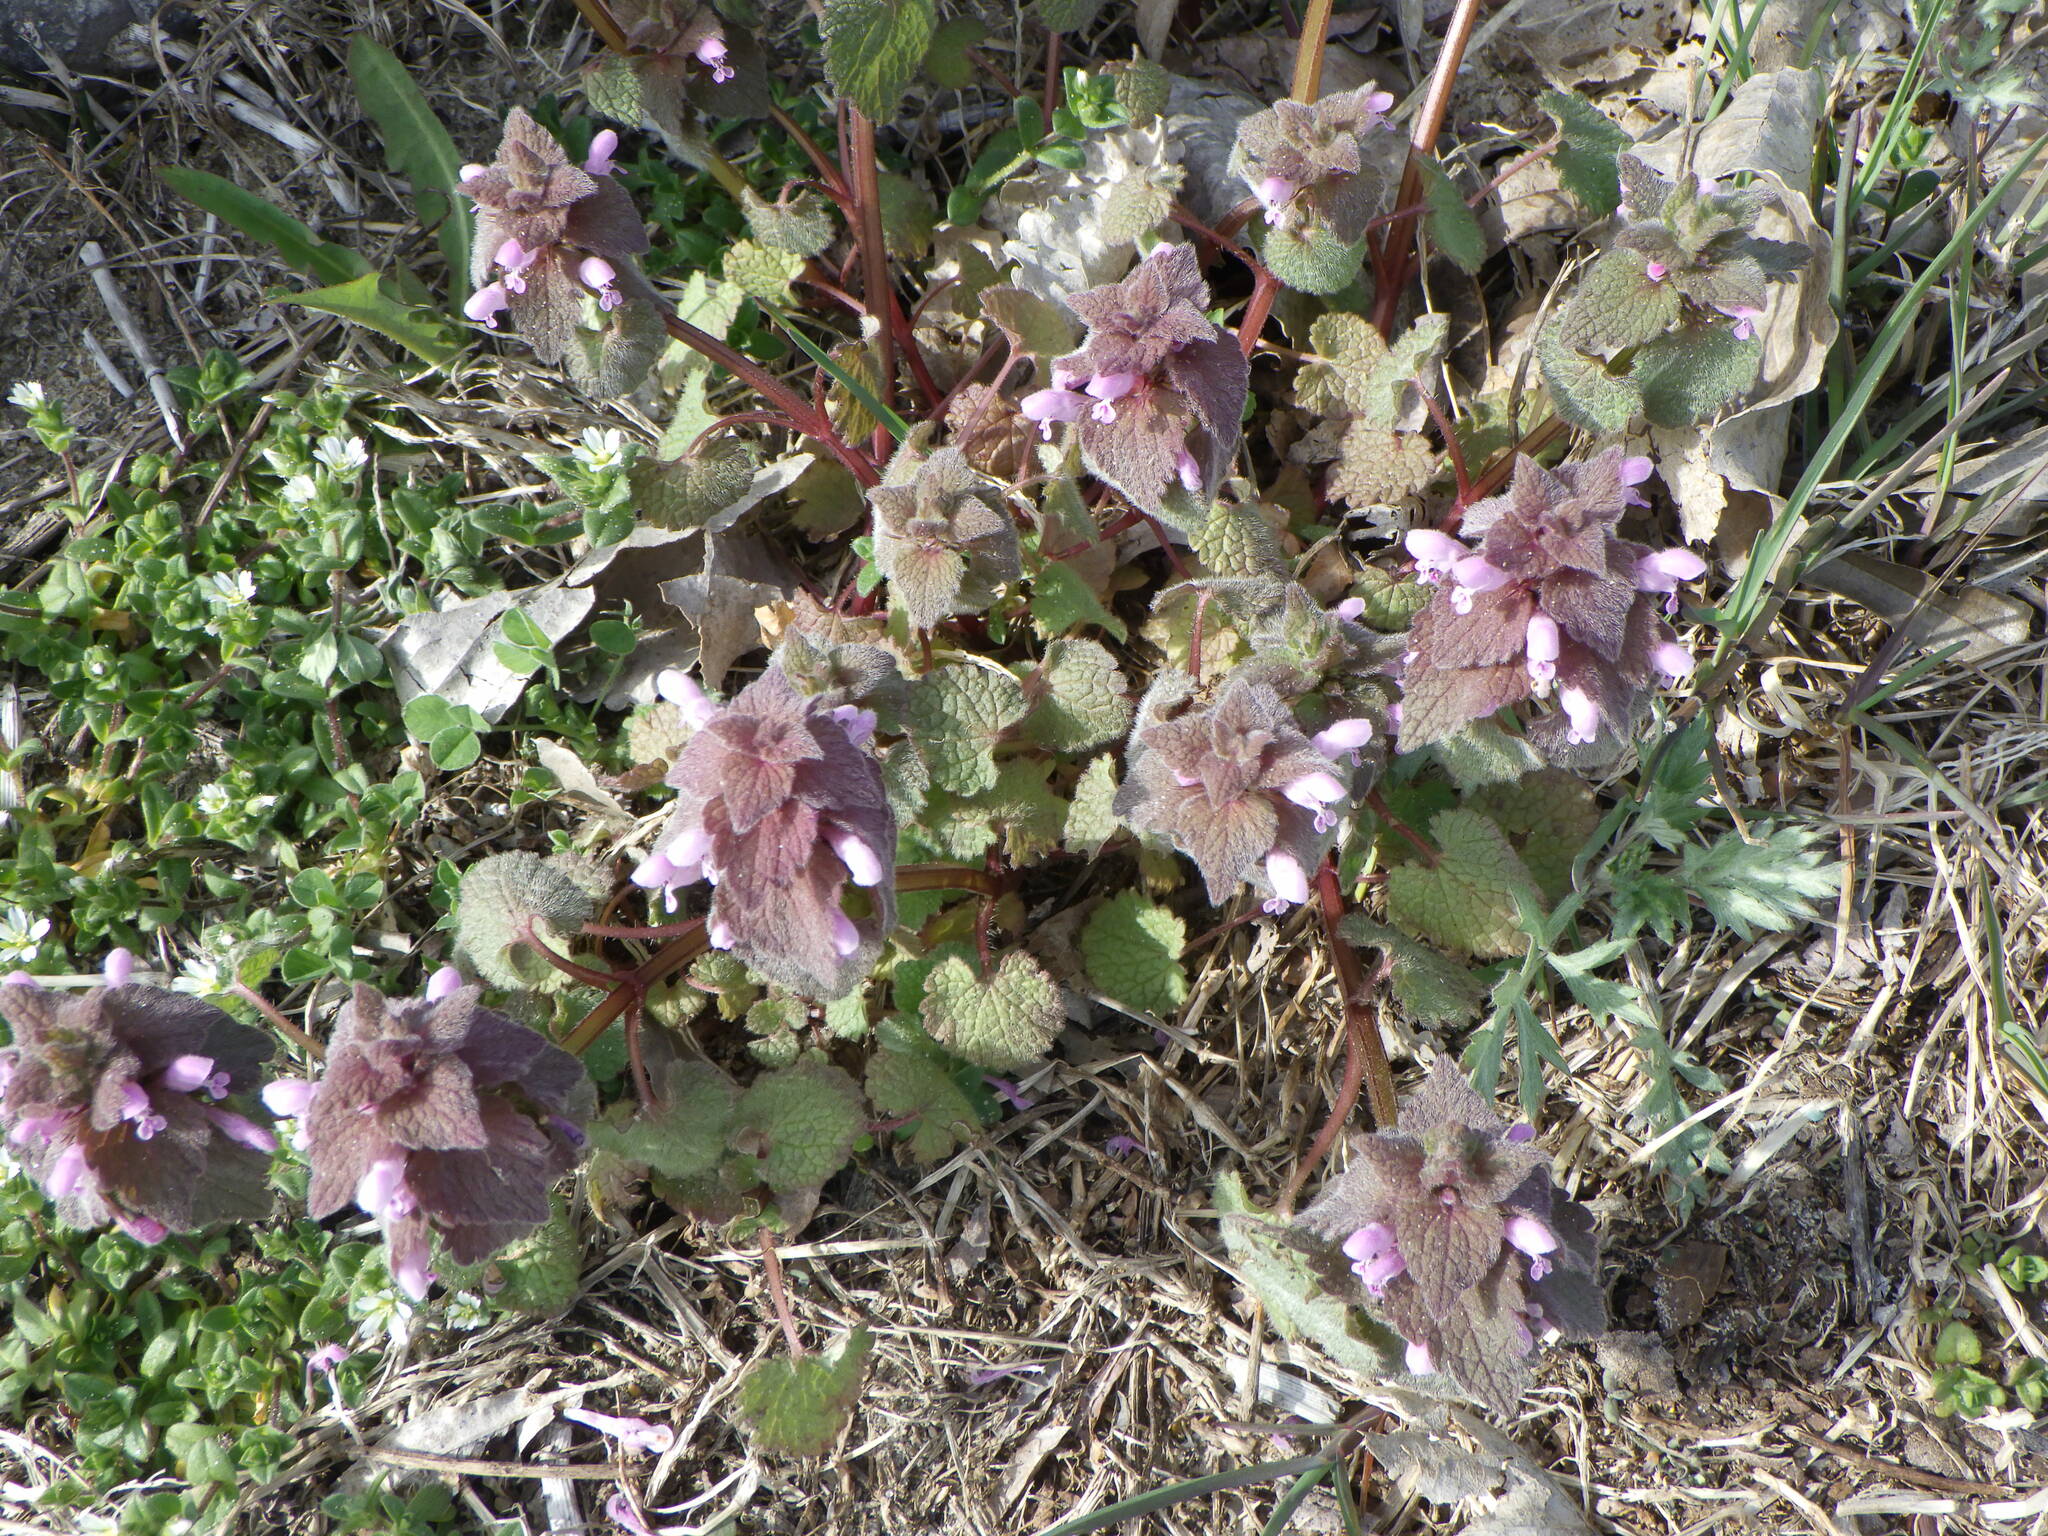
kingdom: Plantae
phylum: Tracheophyta
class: Magnoliopsida
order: Lamiales
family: Lamiaceae
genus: Lamium
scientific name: Lamium purpureum
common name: Red dead-nettle
